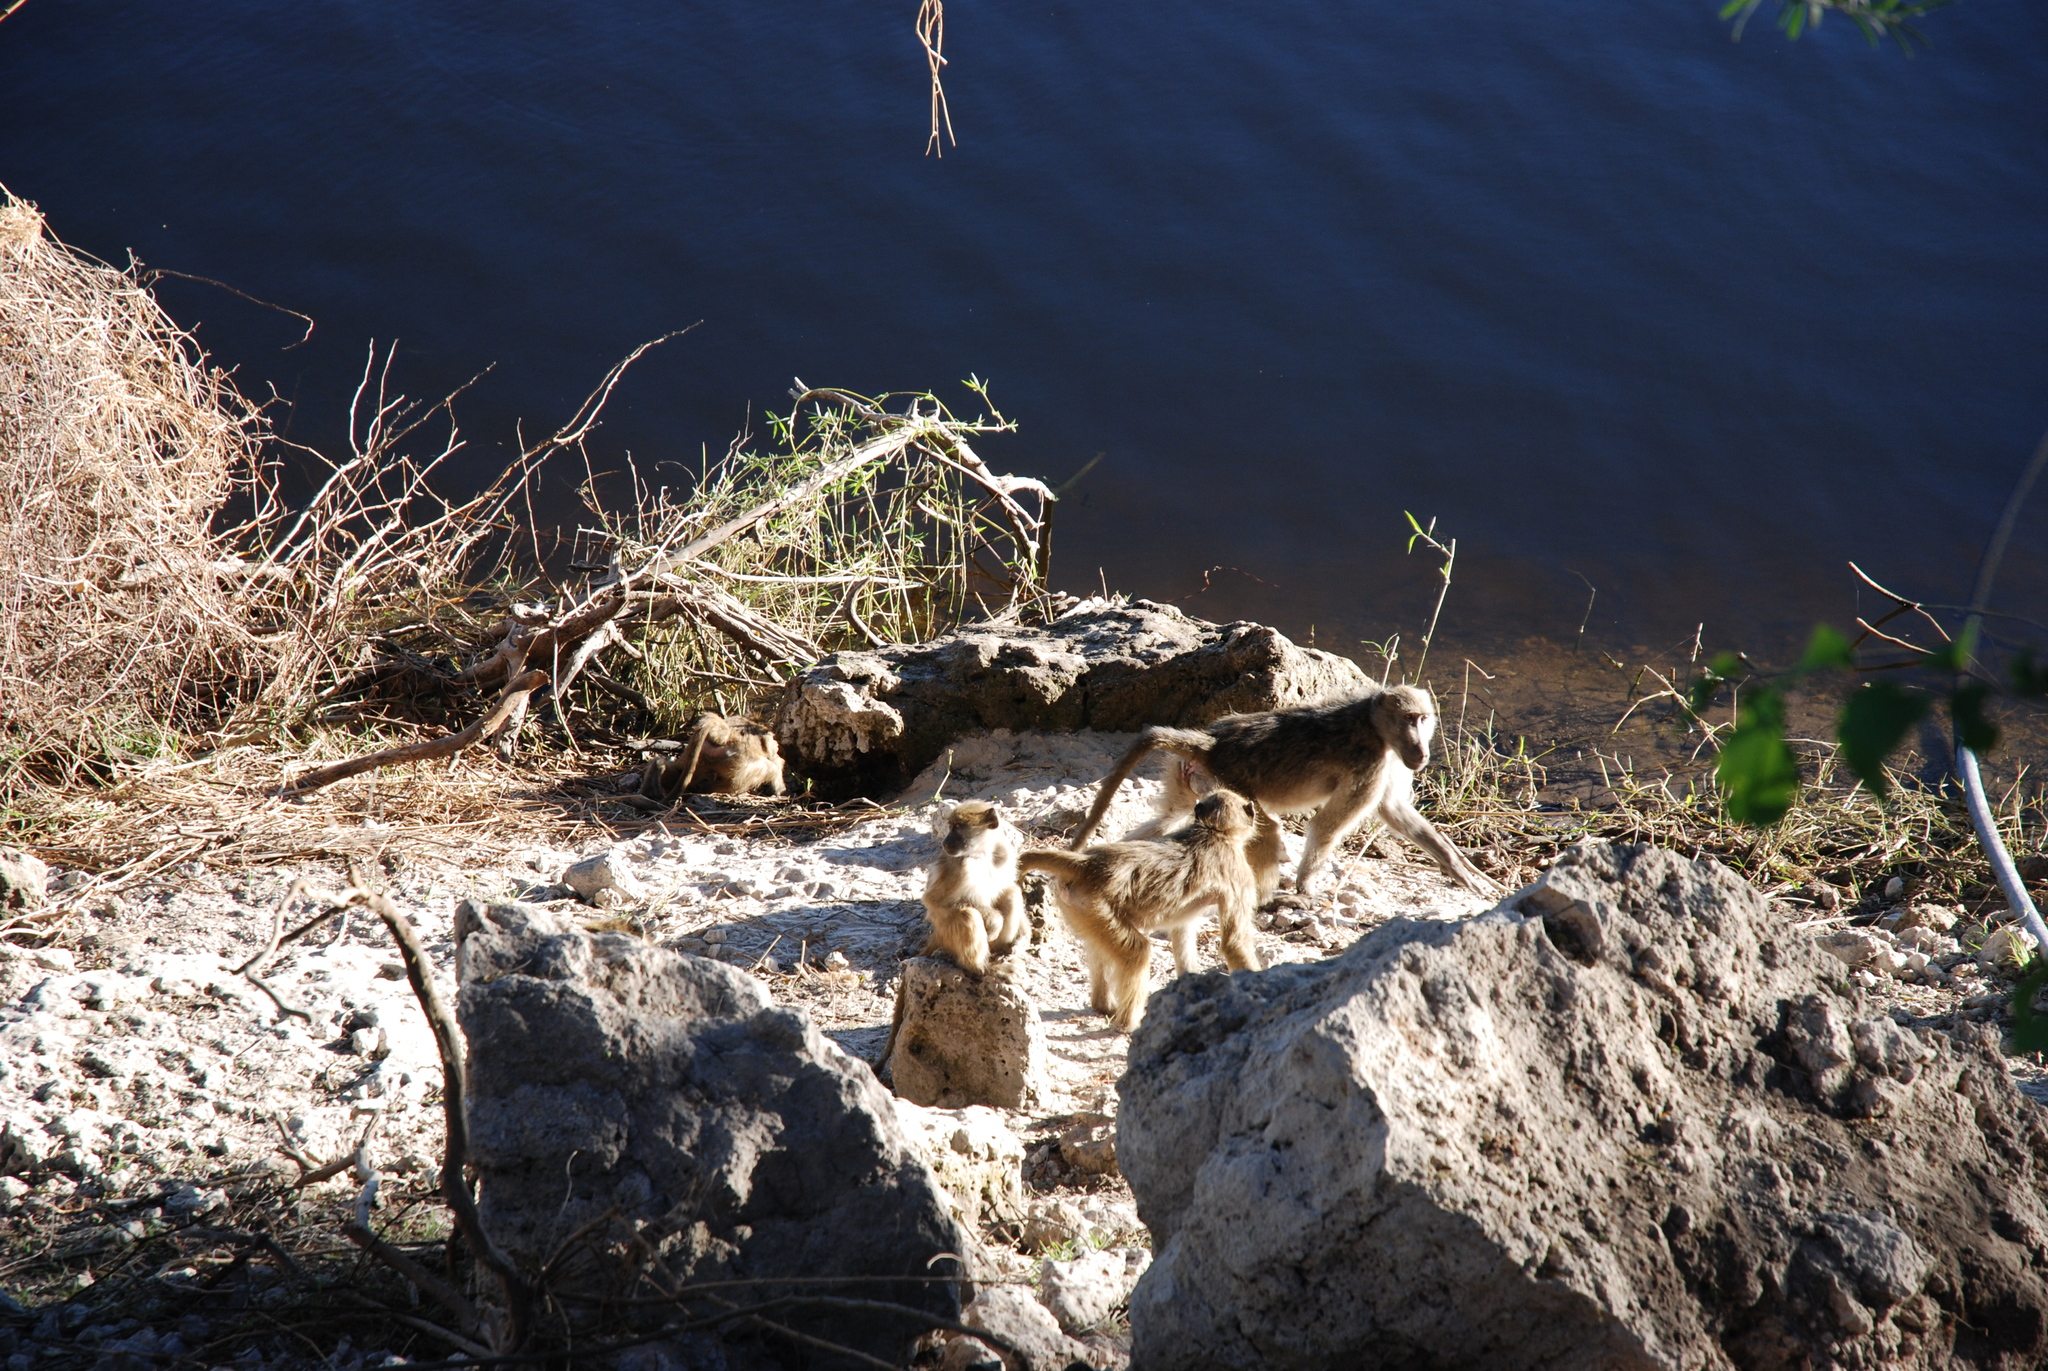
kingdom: Animalia
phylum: Chordata
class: Mammalia
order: Primates
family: Cercopithecidae
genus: Papio
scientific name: Papio ursinus
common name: Chacma baboon
